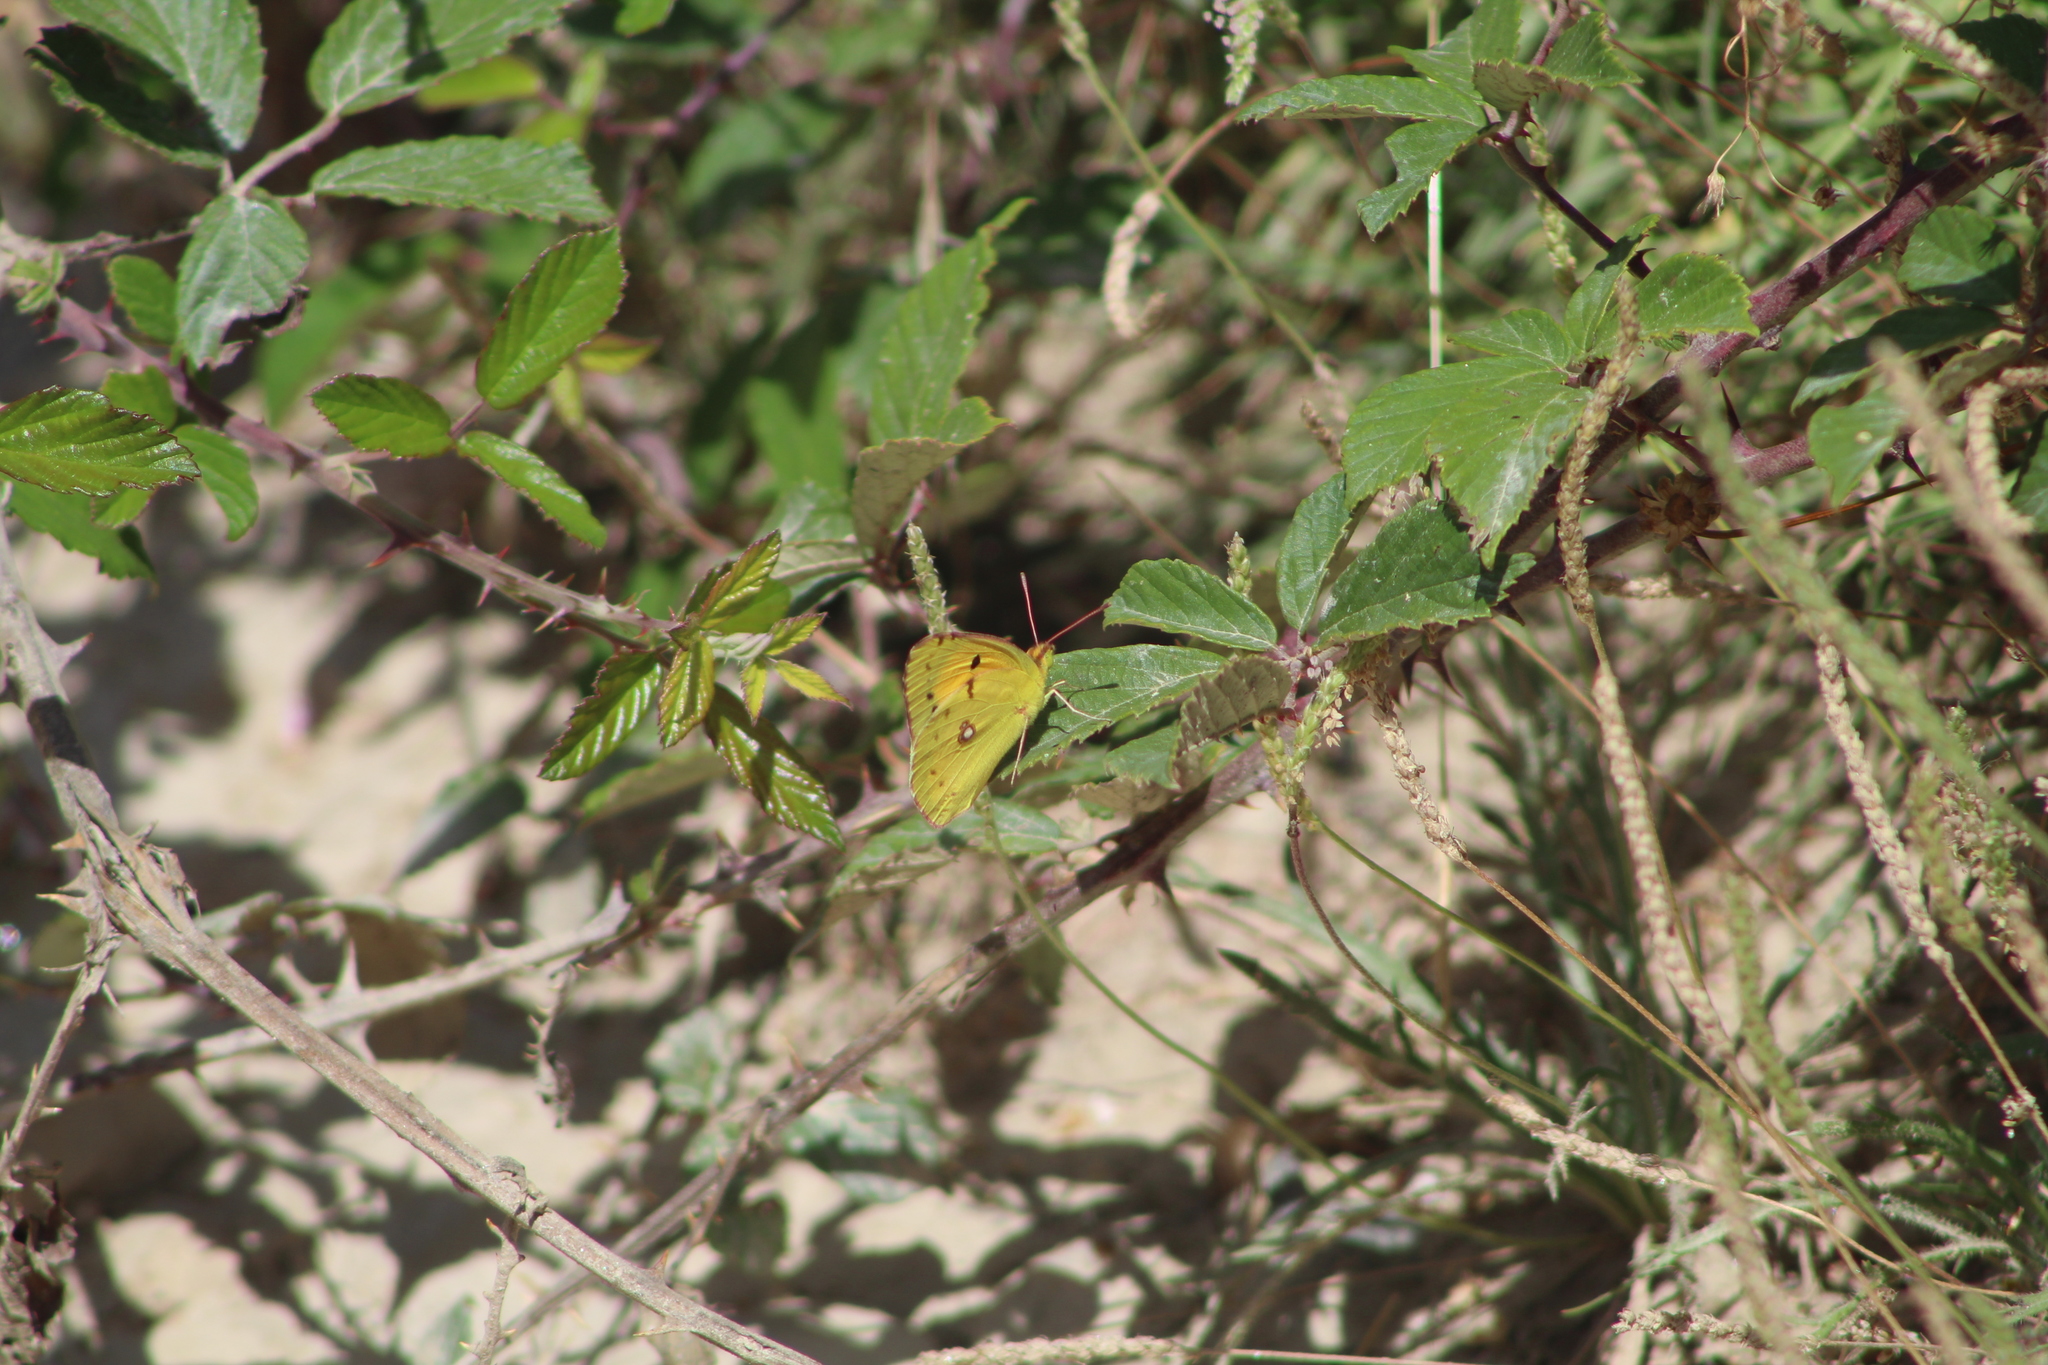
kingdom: Animalia
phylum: Arthropoda
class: Insecta
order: Lepidoptera
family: Pieridae
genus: Colias
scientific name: Colias croceus
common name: Clouded yellow
